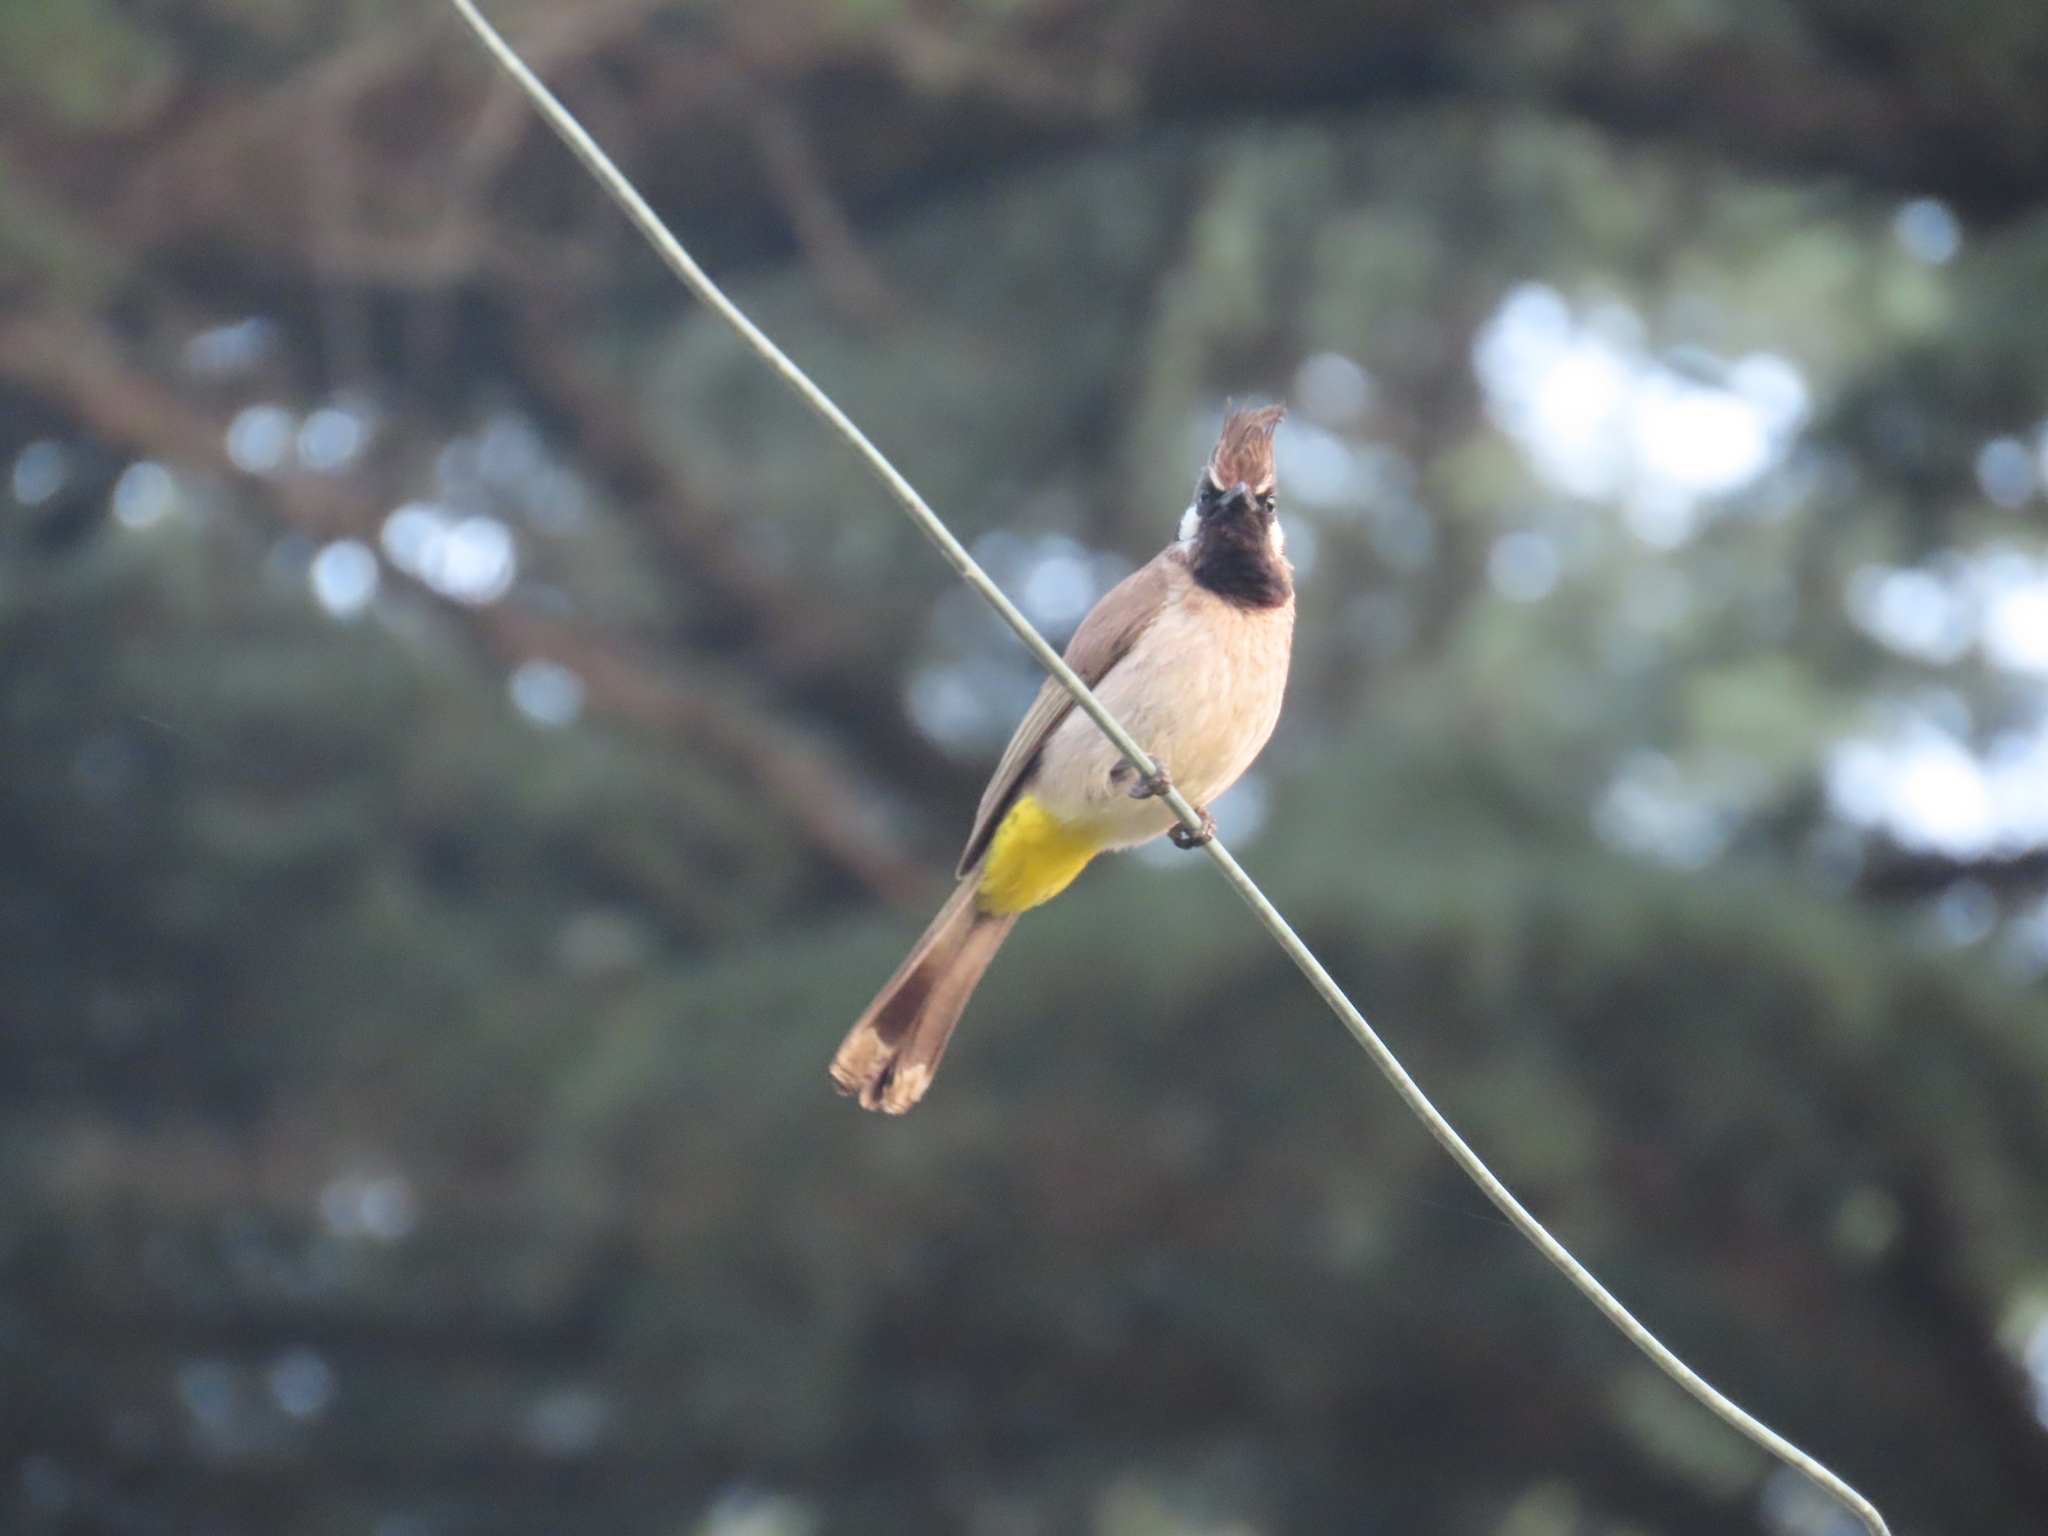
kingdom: Animalia
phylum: Chordata
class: Aves
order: Passeriformes
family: Pycnonotidae
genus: Pycnonotus
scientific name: Pycnonotus leucogenys
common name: Himalayan bulbul
